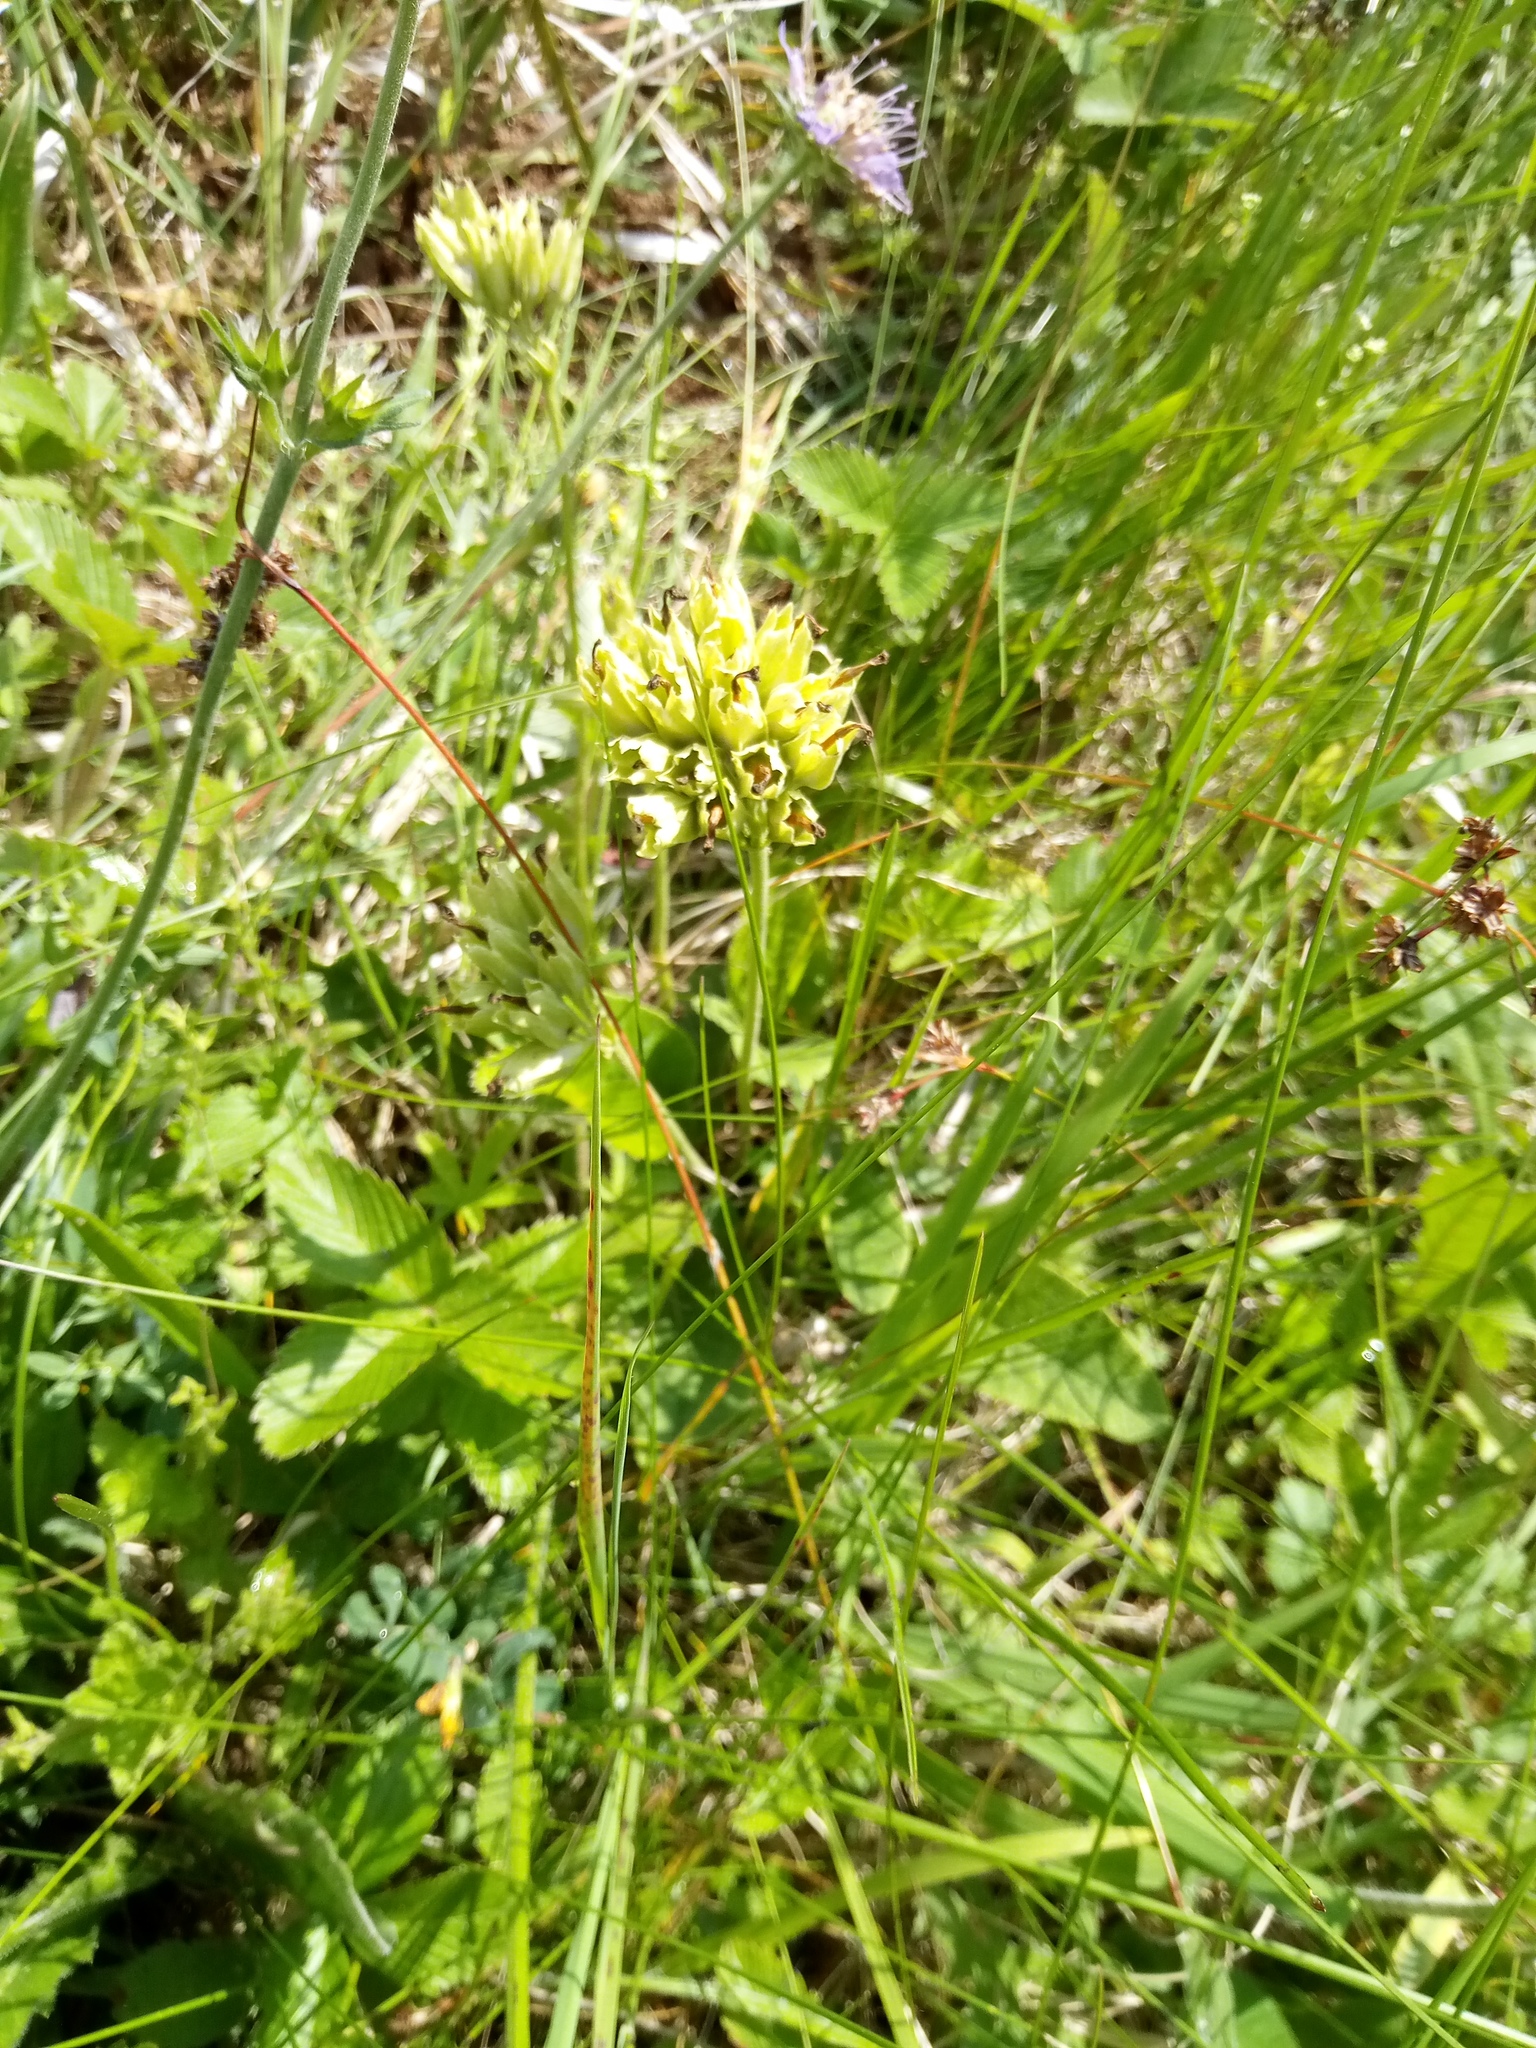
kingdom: Plantae
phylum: Tracheophyta
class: Magnoliopsida
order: Ericales
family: Primulaceae
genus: Primula
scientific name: Primula veris
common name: Cowslip
